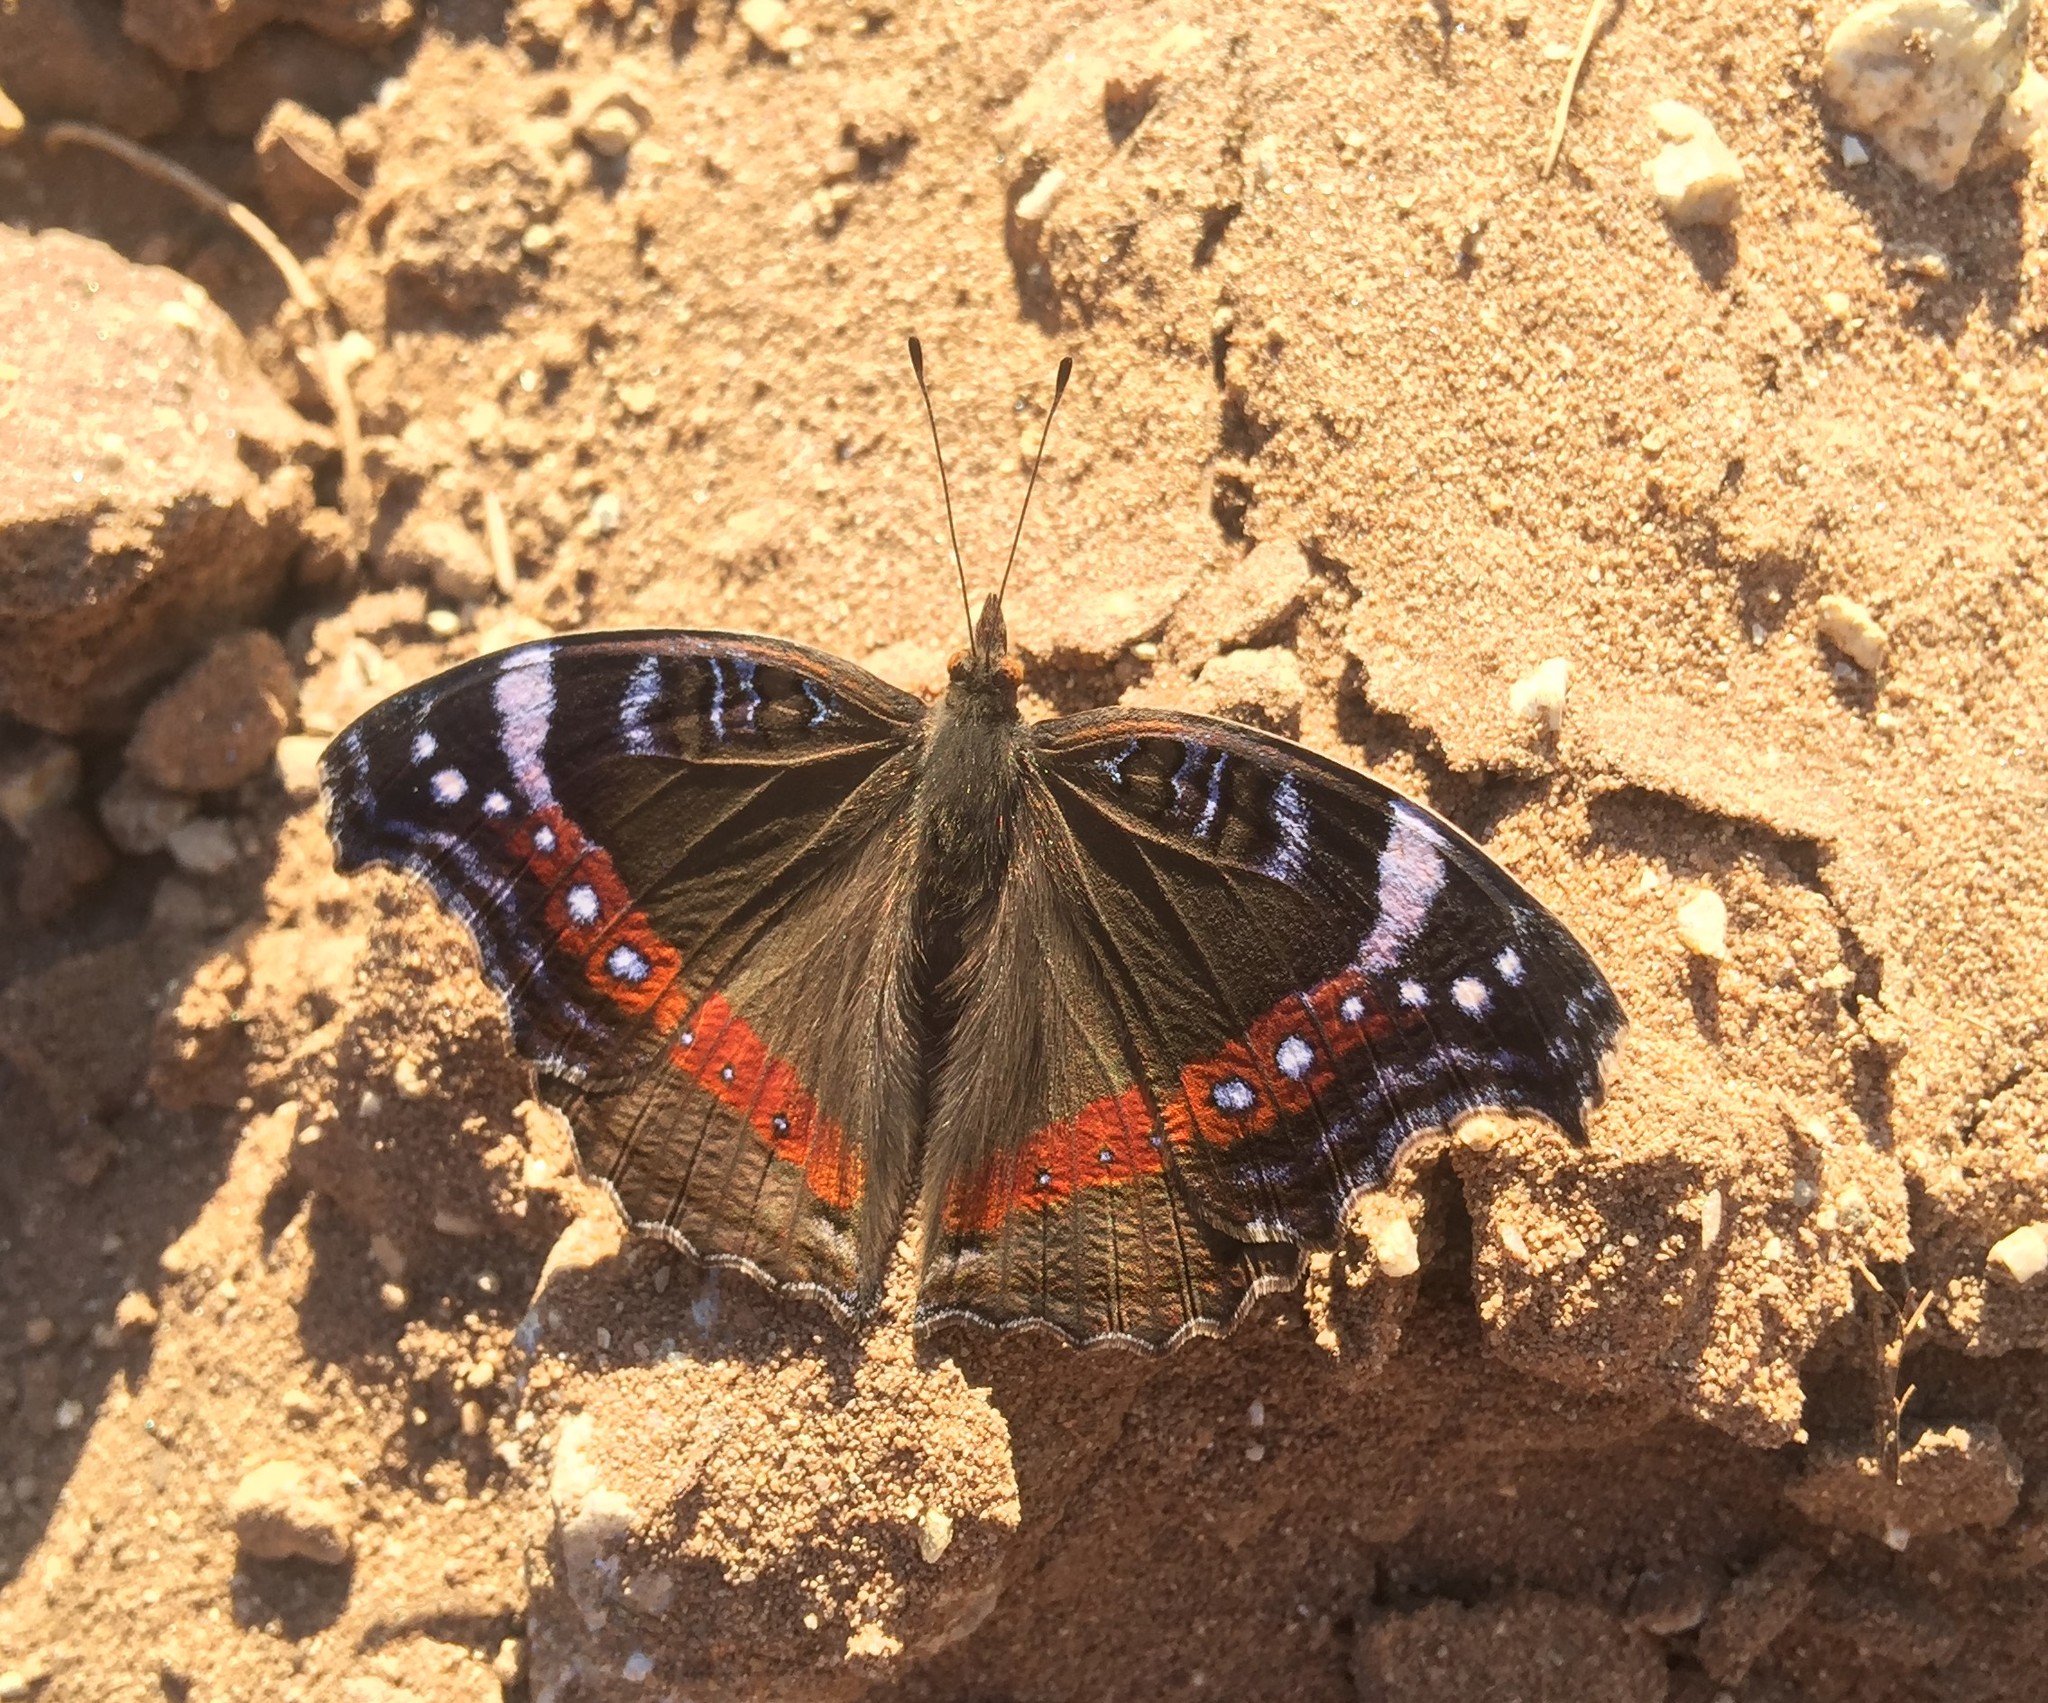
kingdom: Animalia
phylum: Arthropoda
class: Insecta
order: Lepidoptera
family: Nymphalidae
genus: Junonia
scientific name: Junonia archesia
